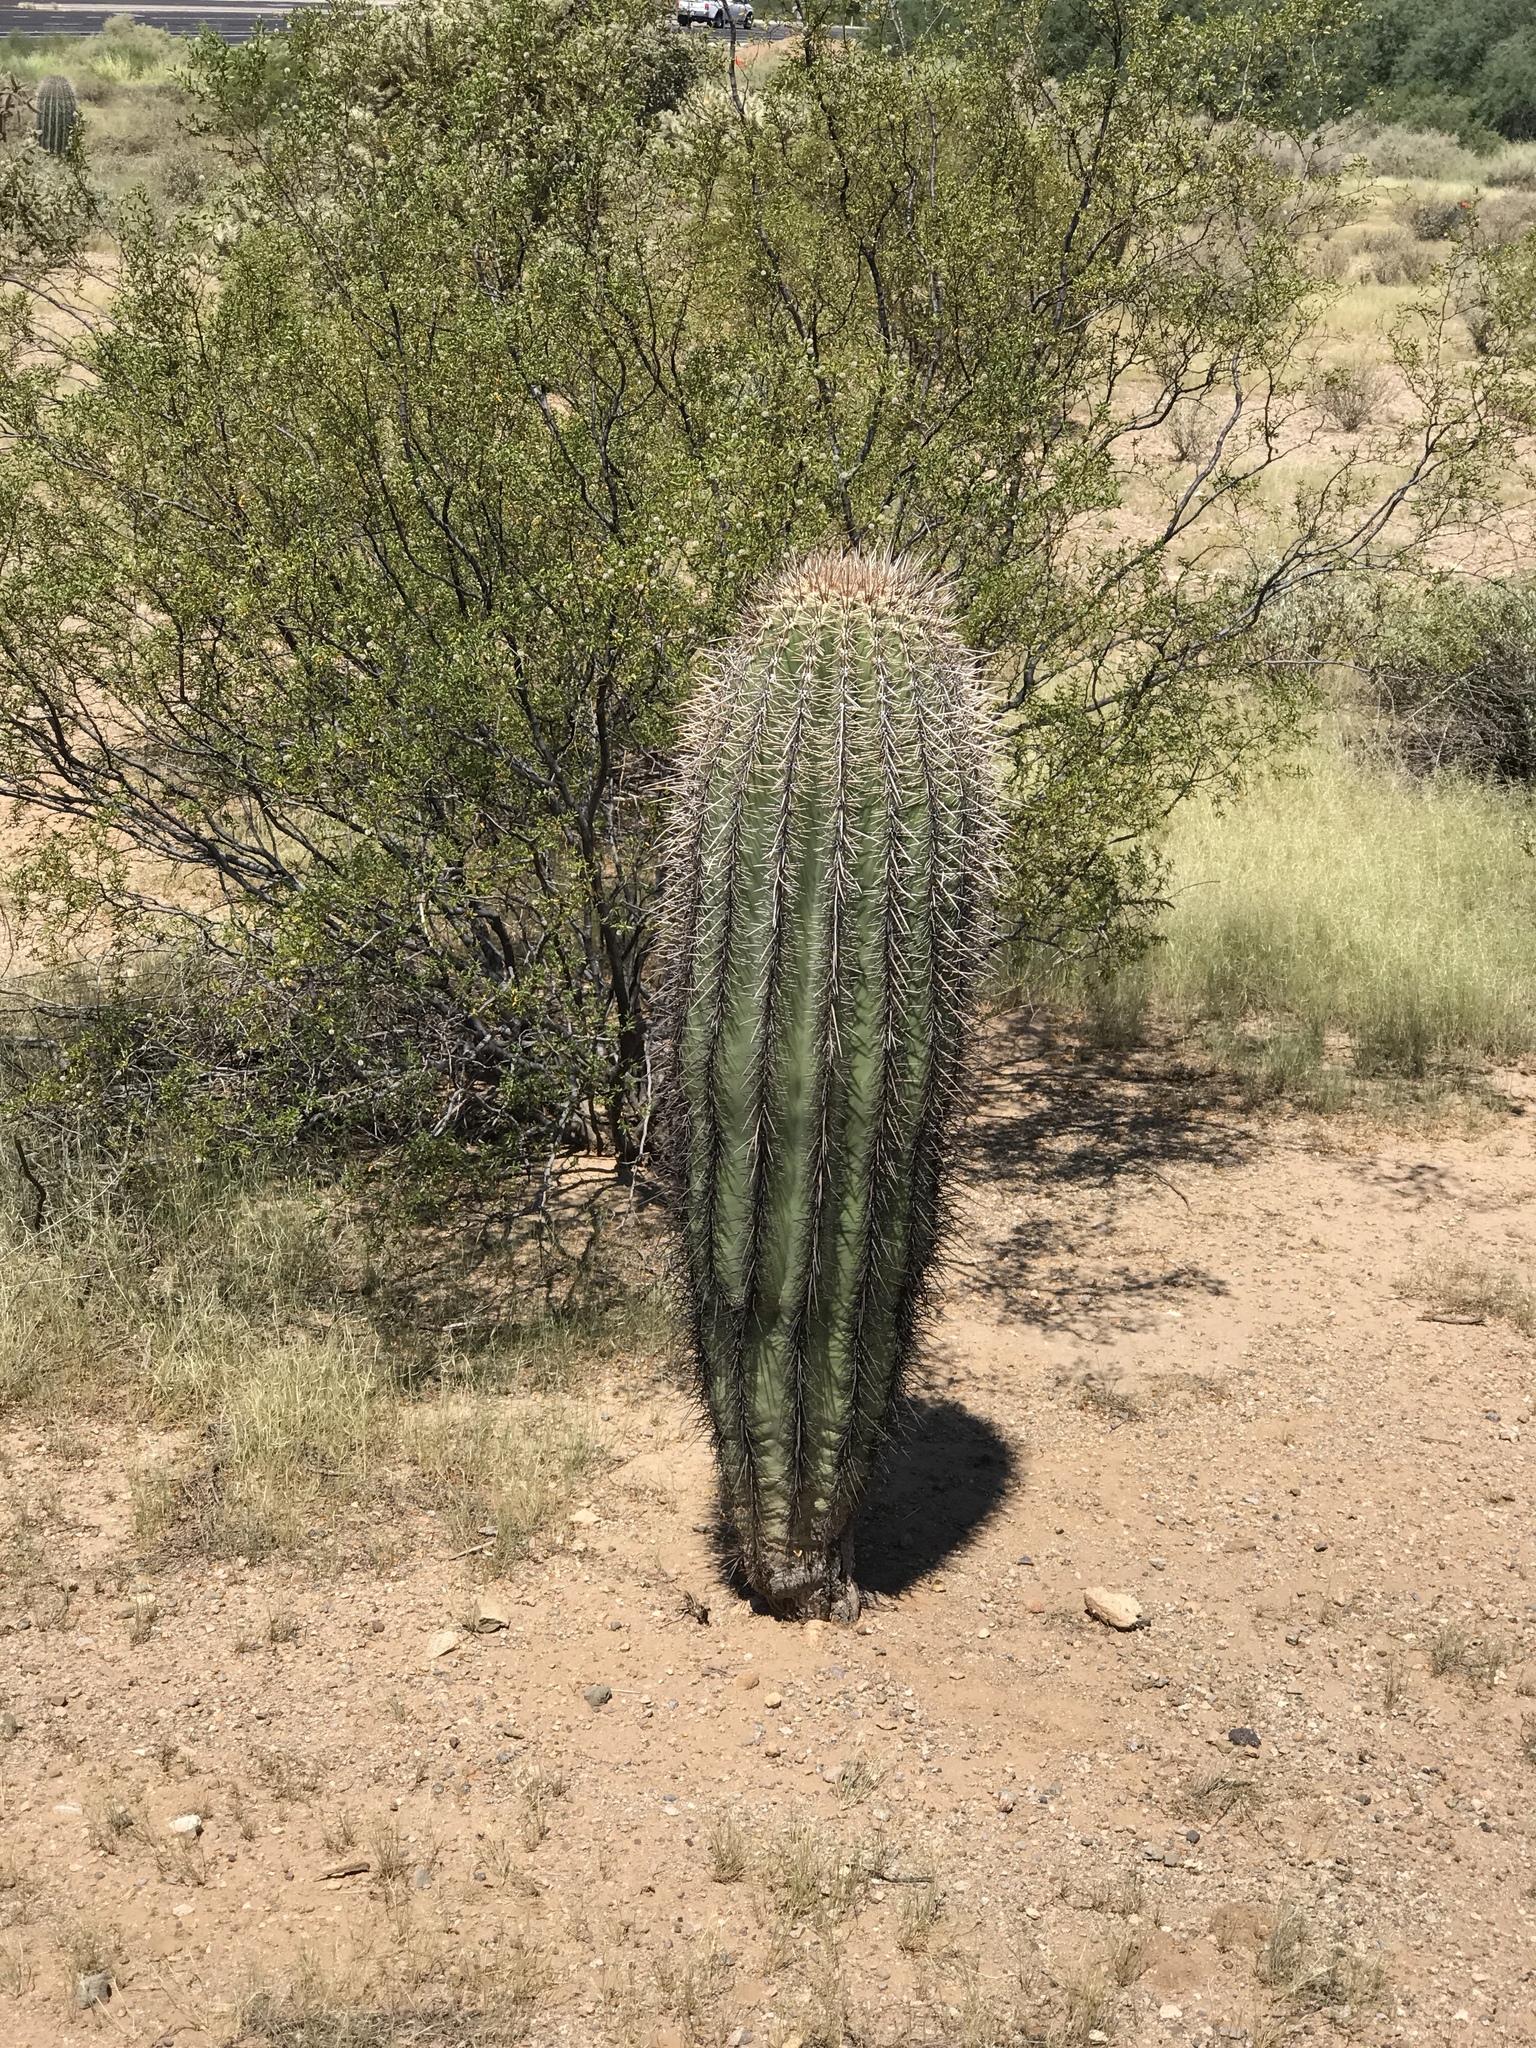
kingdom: Plantae
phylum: Tracheophyta
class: Magnoliopsida
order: Caryophyllales
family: Cactaceae
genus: Carnegiea
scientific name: Carnegiea gigantea
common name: Saguaro
